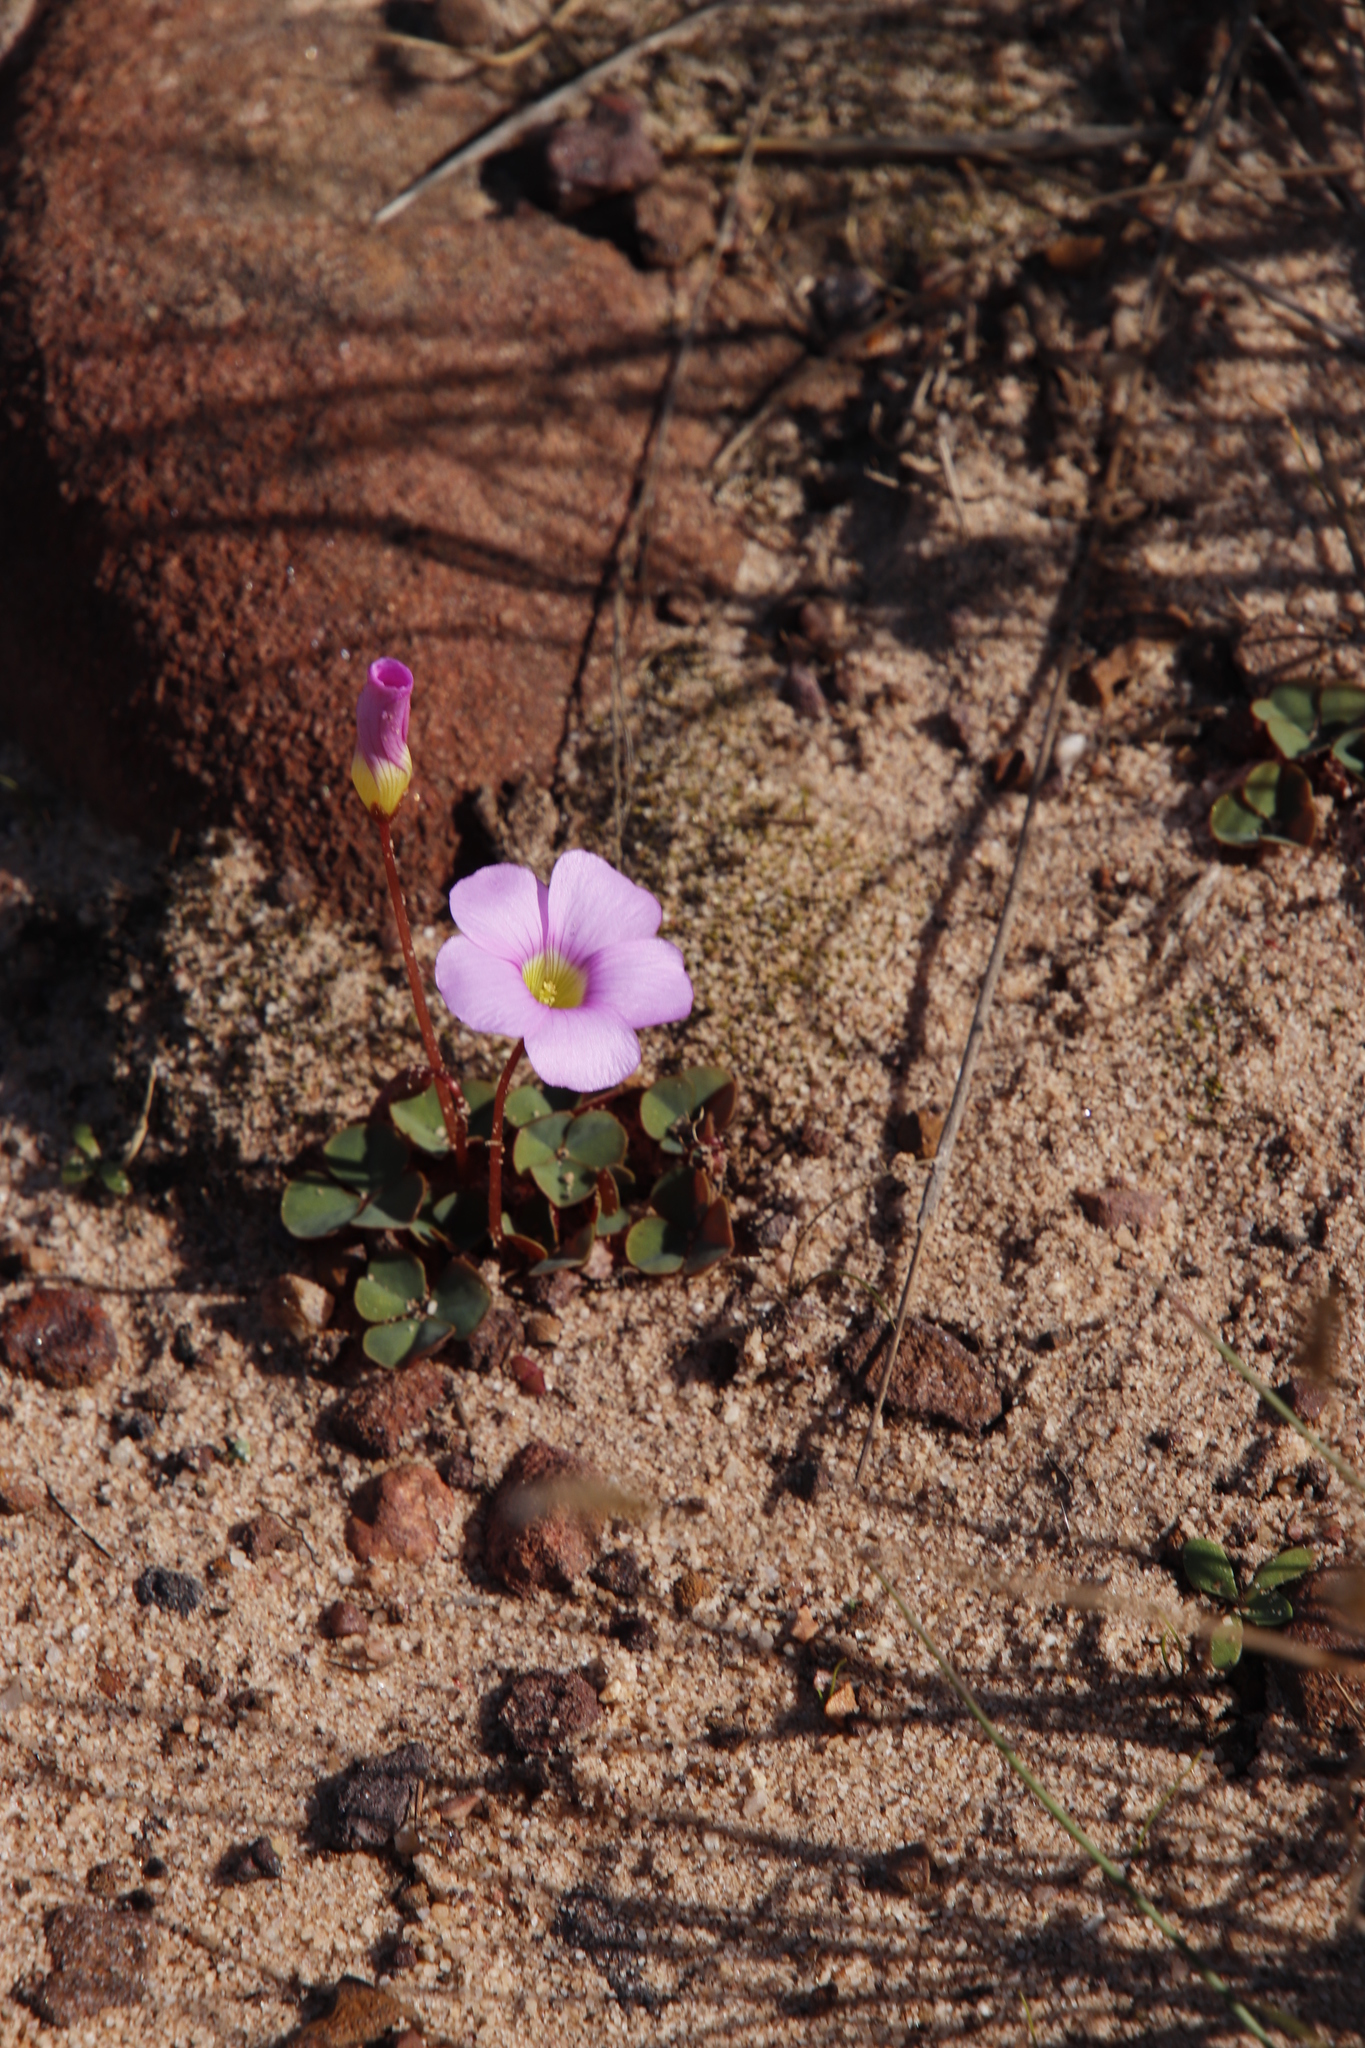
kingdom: Plantae
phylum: Tracheophyta
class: Magnoliopsida
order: Oxalidales
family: Oxalidaceae
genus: Oxalis
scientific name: Oxalis commutata
